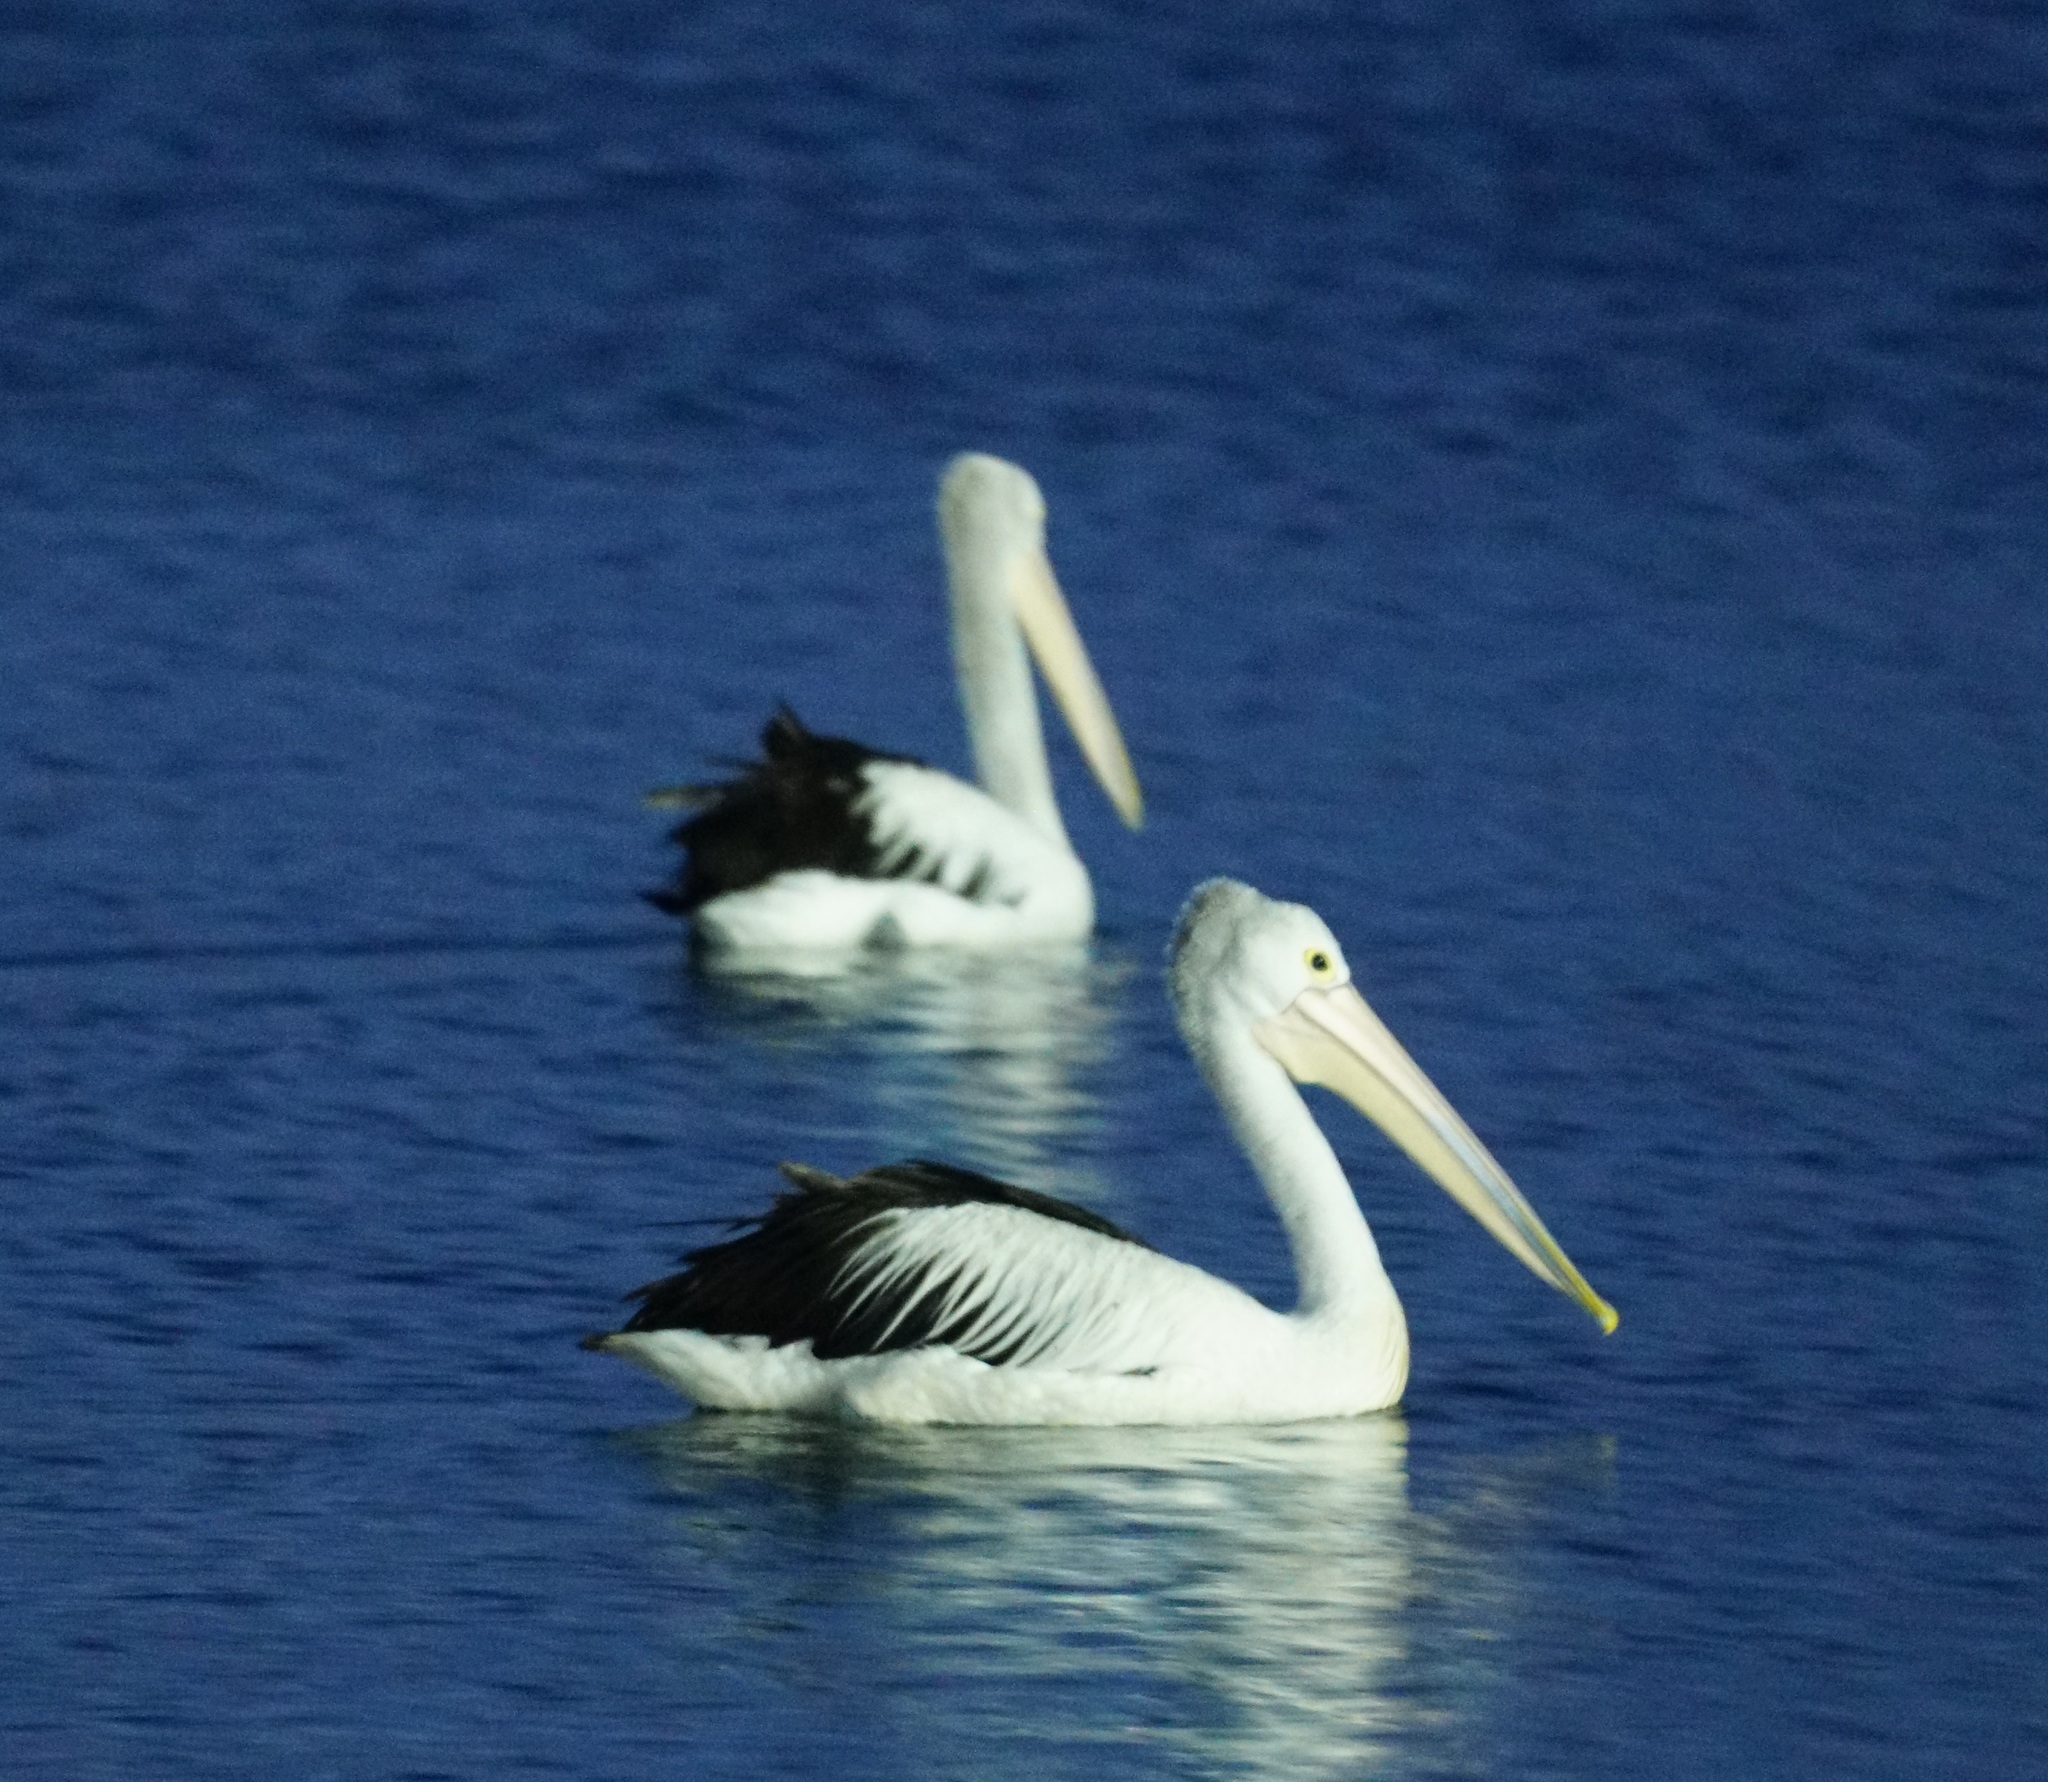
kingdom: Animalia
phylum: Chordata
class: Aves
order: Pelecaniformes
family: Pelecanidae
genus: Pelecanus
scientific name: Pelecanus conspicillatus
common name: Australian pelican
